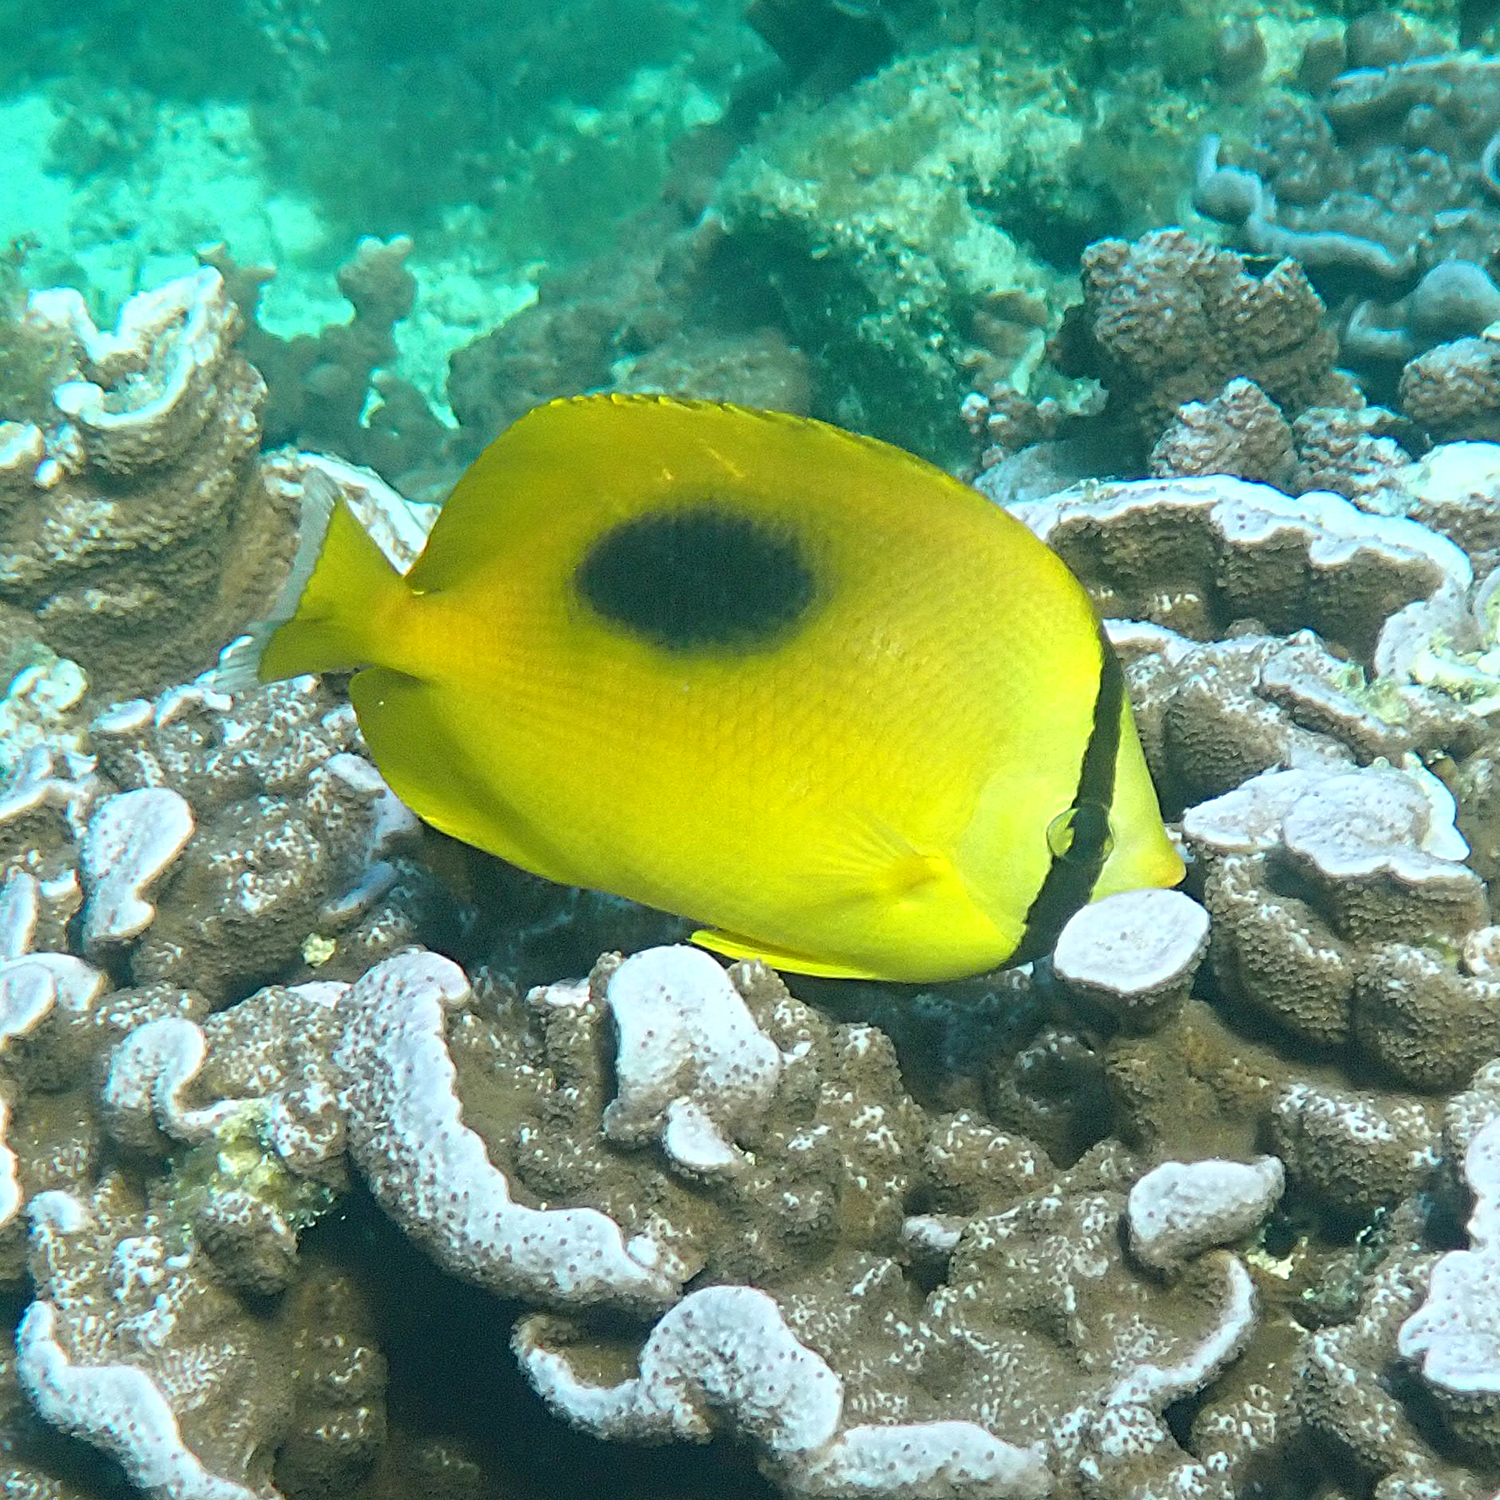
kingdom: Animalia
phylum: Chordata
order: Perciformes
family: Chaetodontidae
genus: Chaetodon
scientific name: Chaetodon speculum
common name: Mirror butterflyfish
